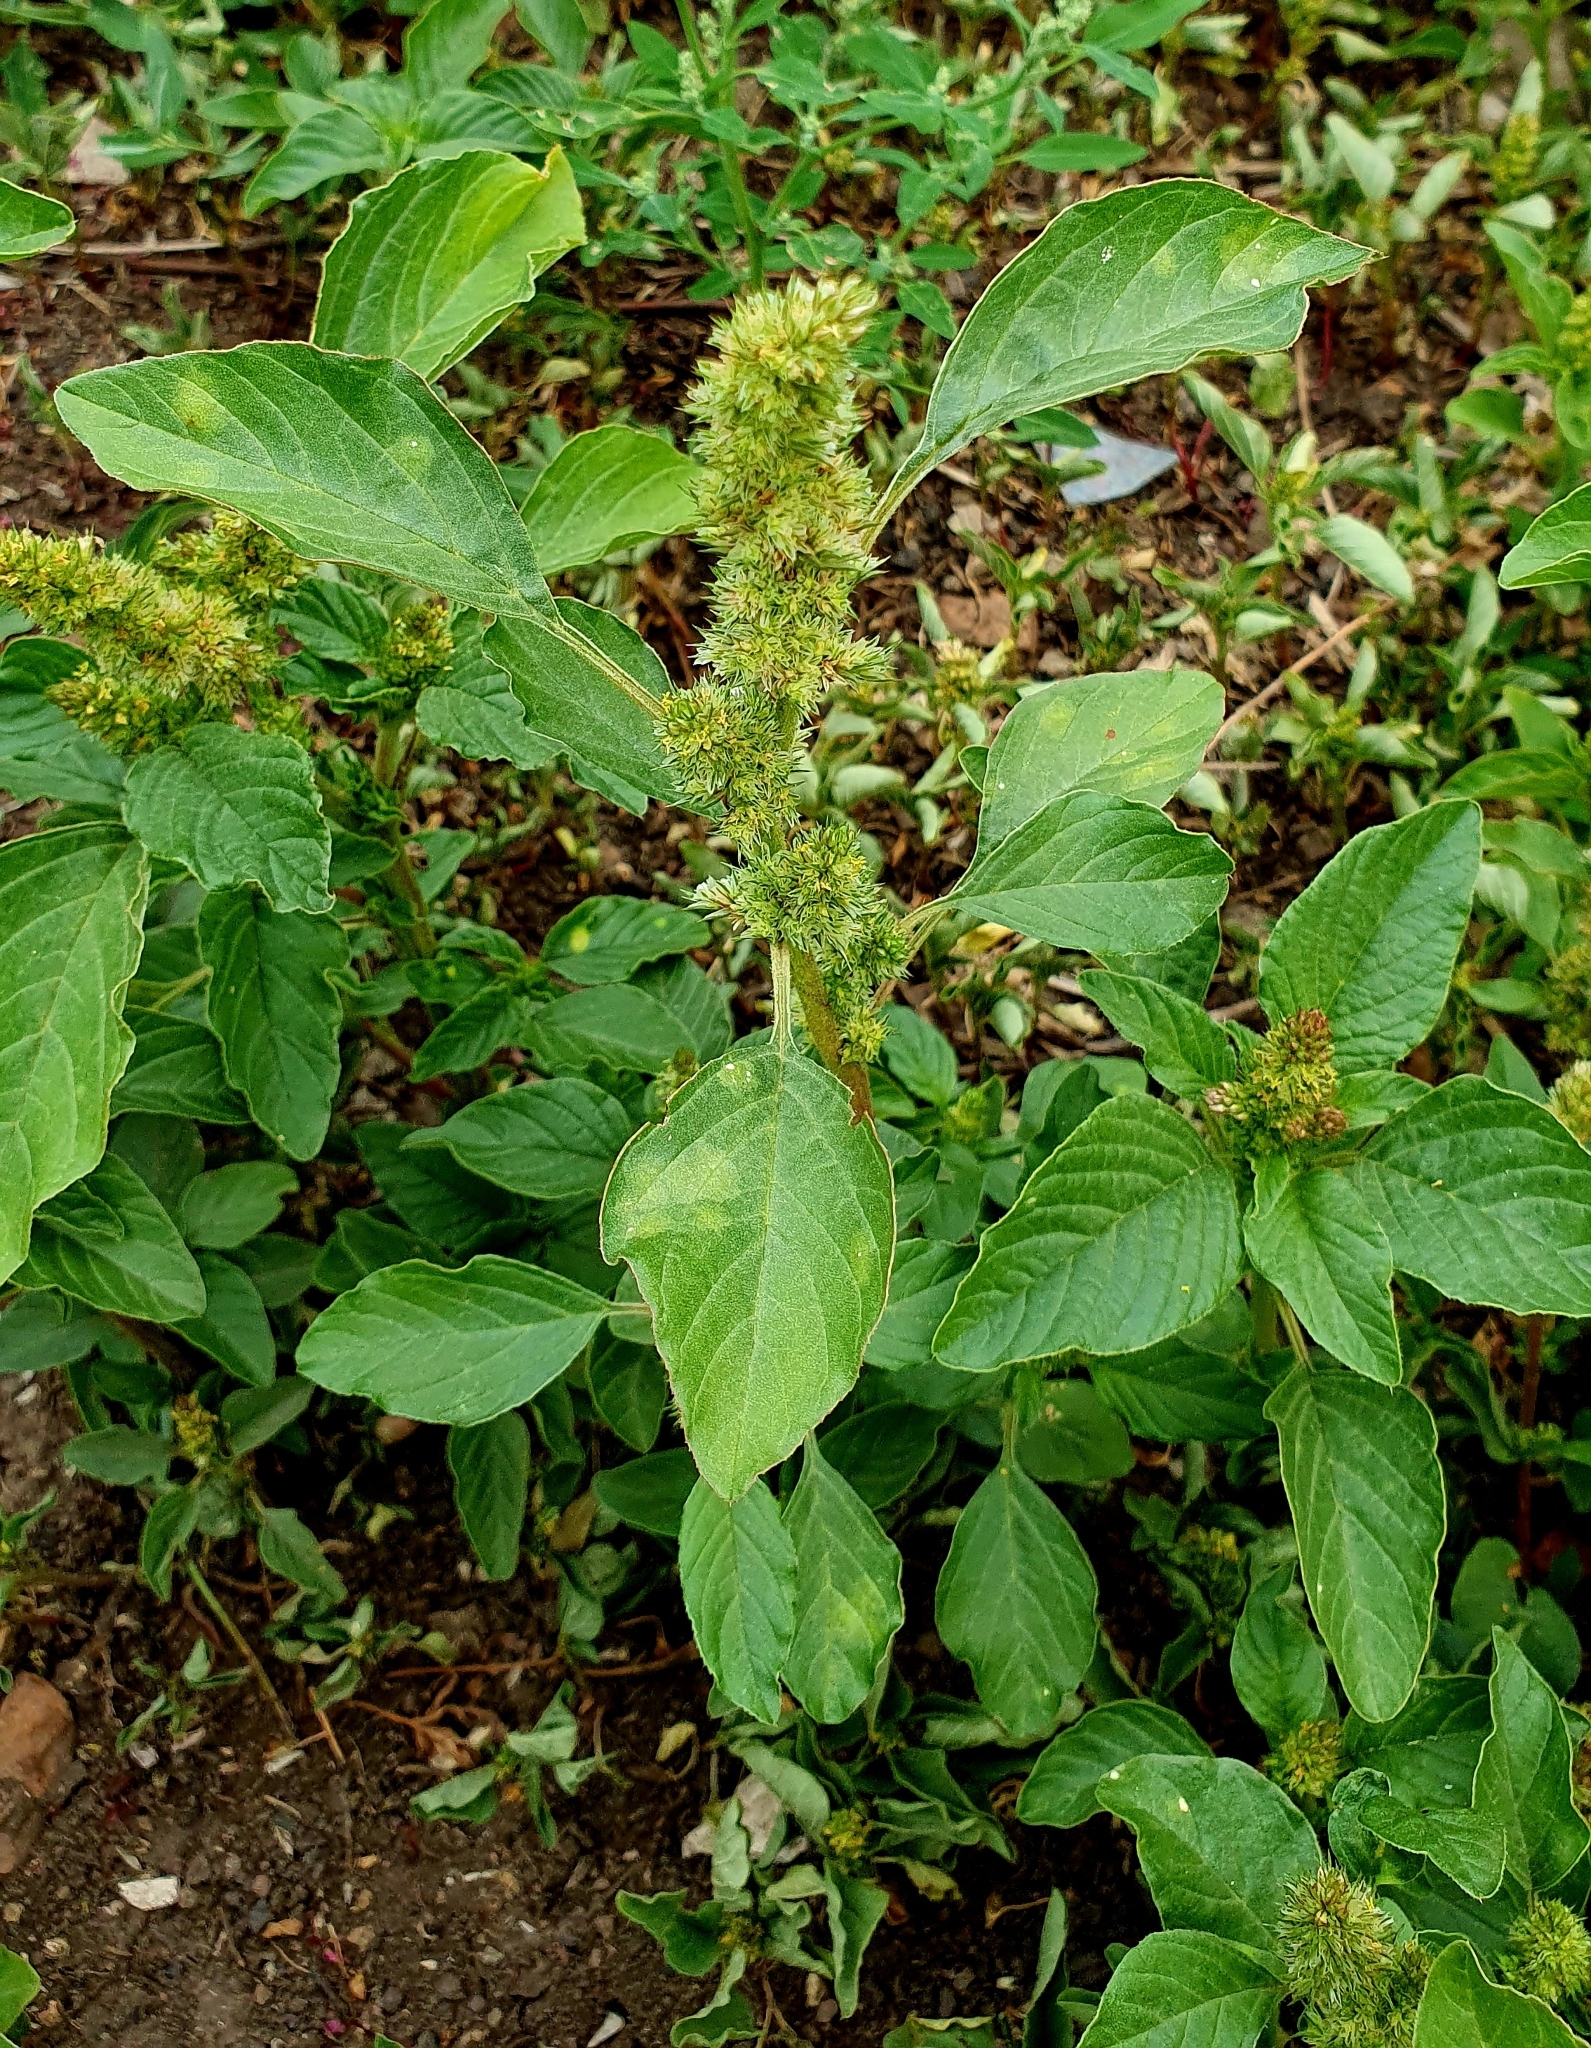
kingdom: Plantae
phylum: Tracheophyta
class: Magnoliopsida
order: Caryophyllales
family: Amaranthaceae
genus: Amaranthus
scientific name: Amaranthus retroflexus
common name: Redroot amaranth
